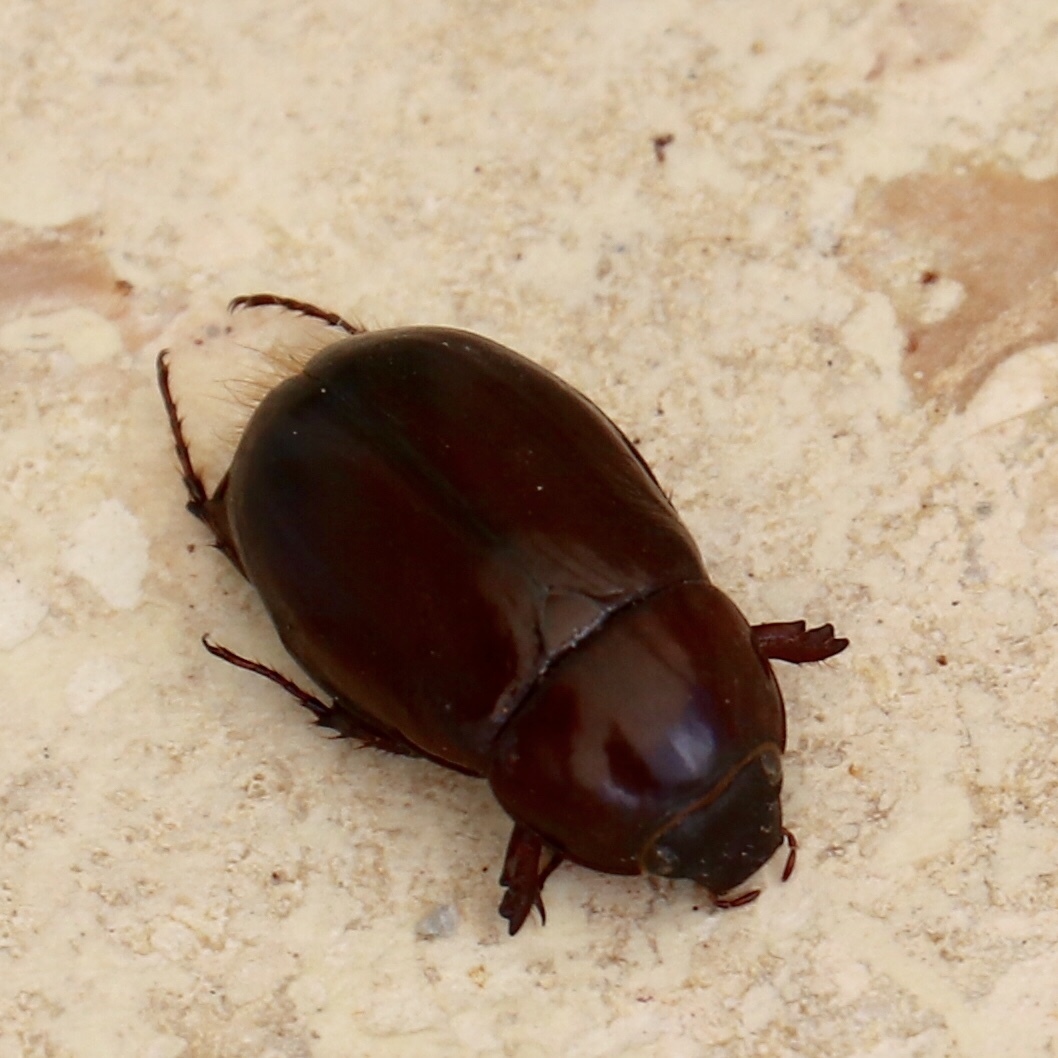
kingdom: Animalia
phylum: Arthropoda
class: Insecta
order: Coleoptera
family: Scarabaeidae
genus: Chalepides
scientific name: Chalepides barbatus
